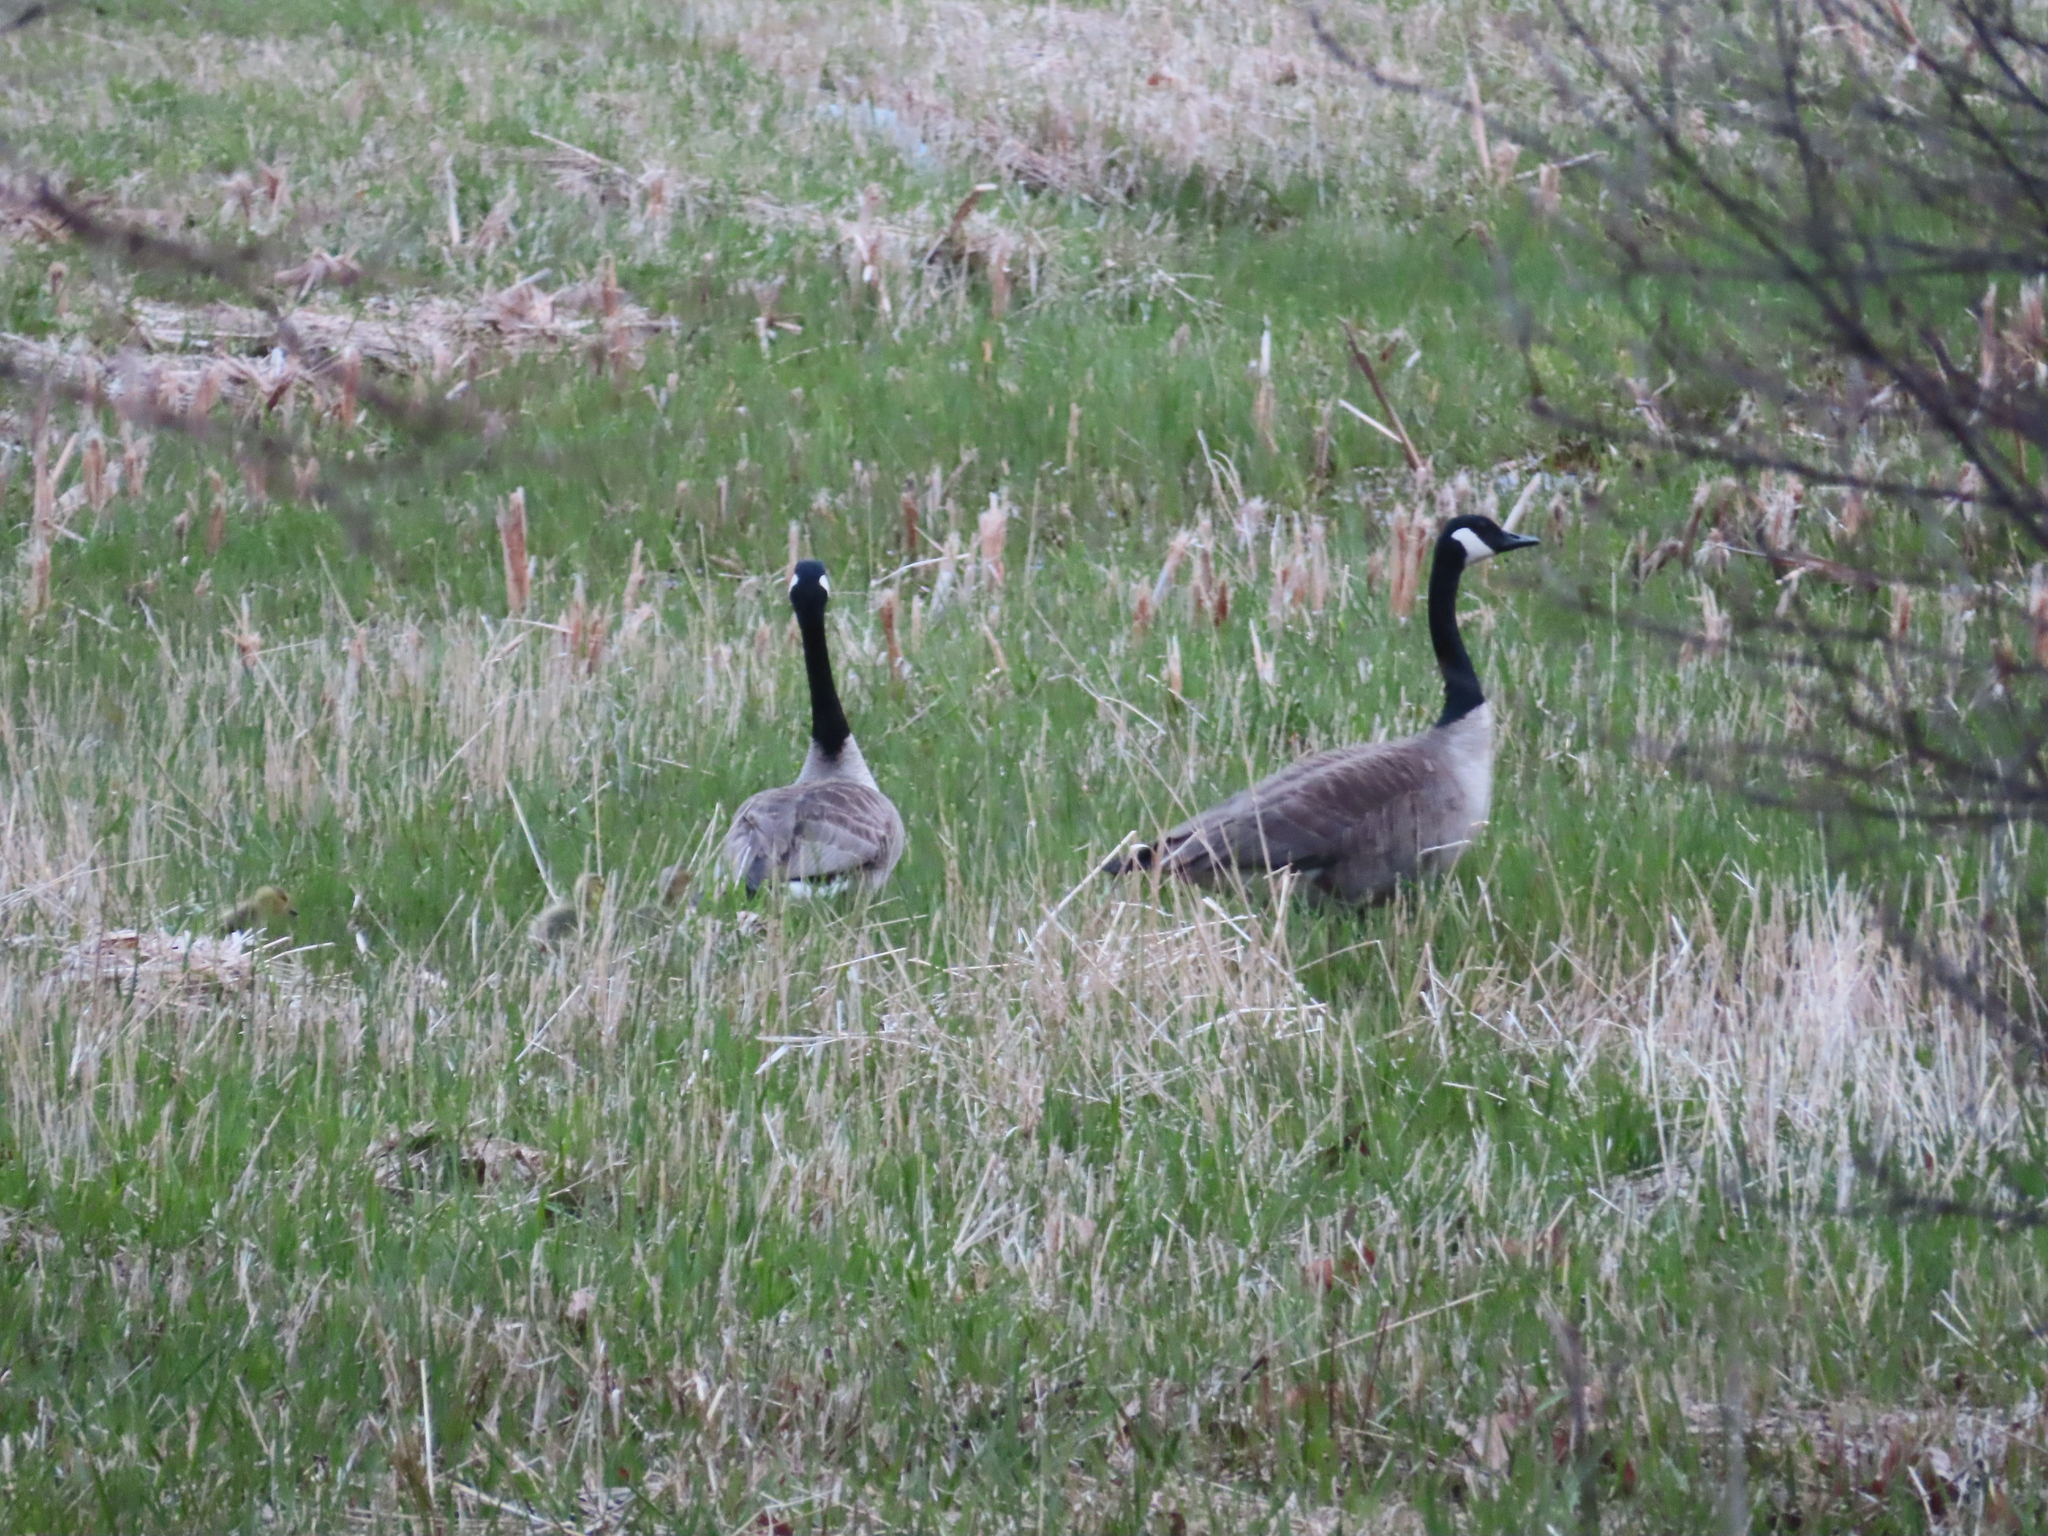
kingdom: Animalia
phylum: Chordata
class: Aves
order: Anseriformes
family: Anatidae
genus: Branta
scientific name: Branta canadensis
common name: Canada goose
